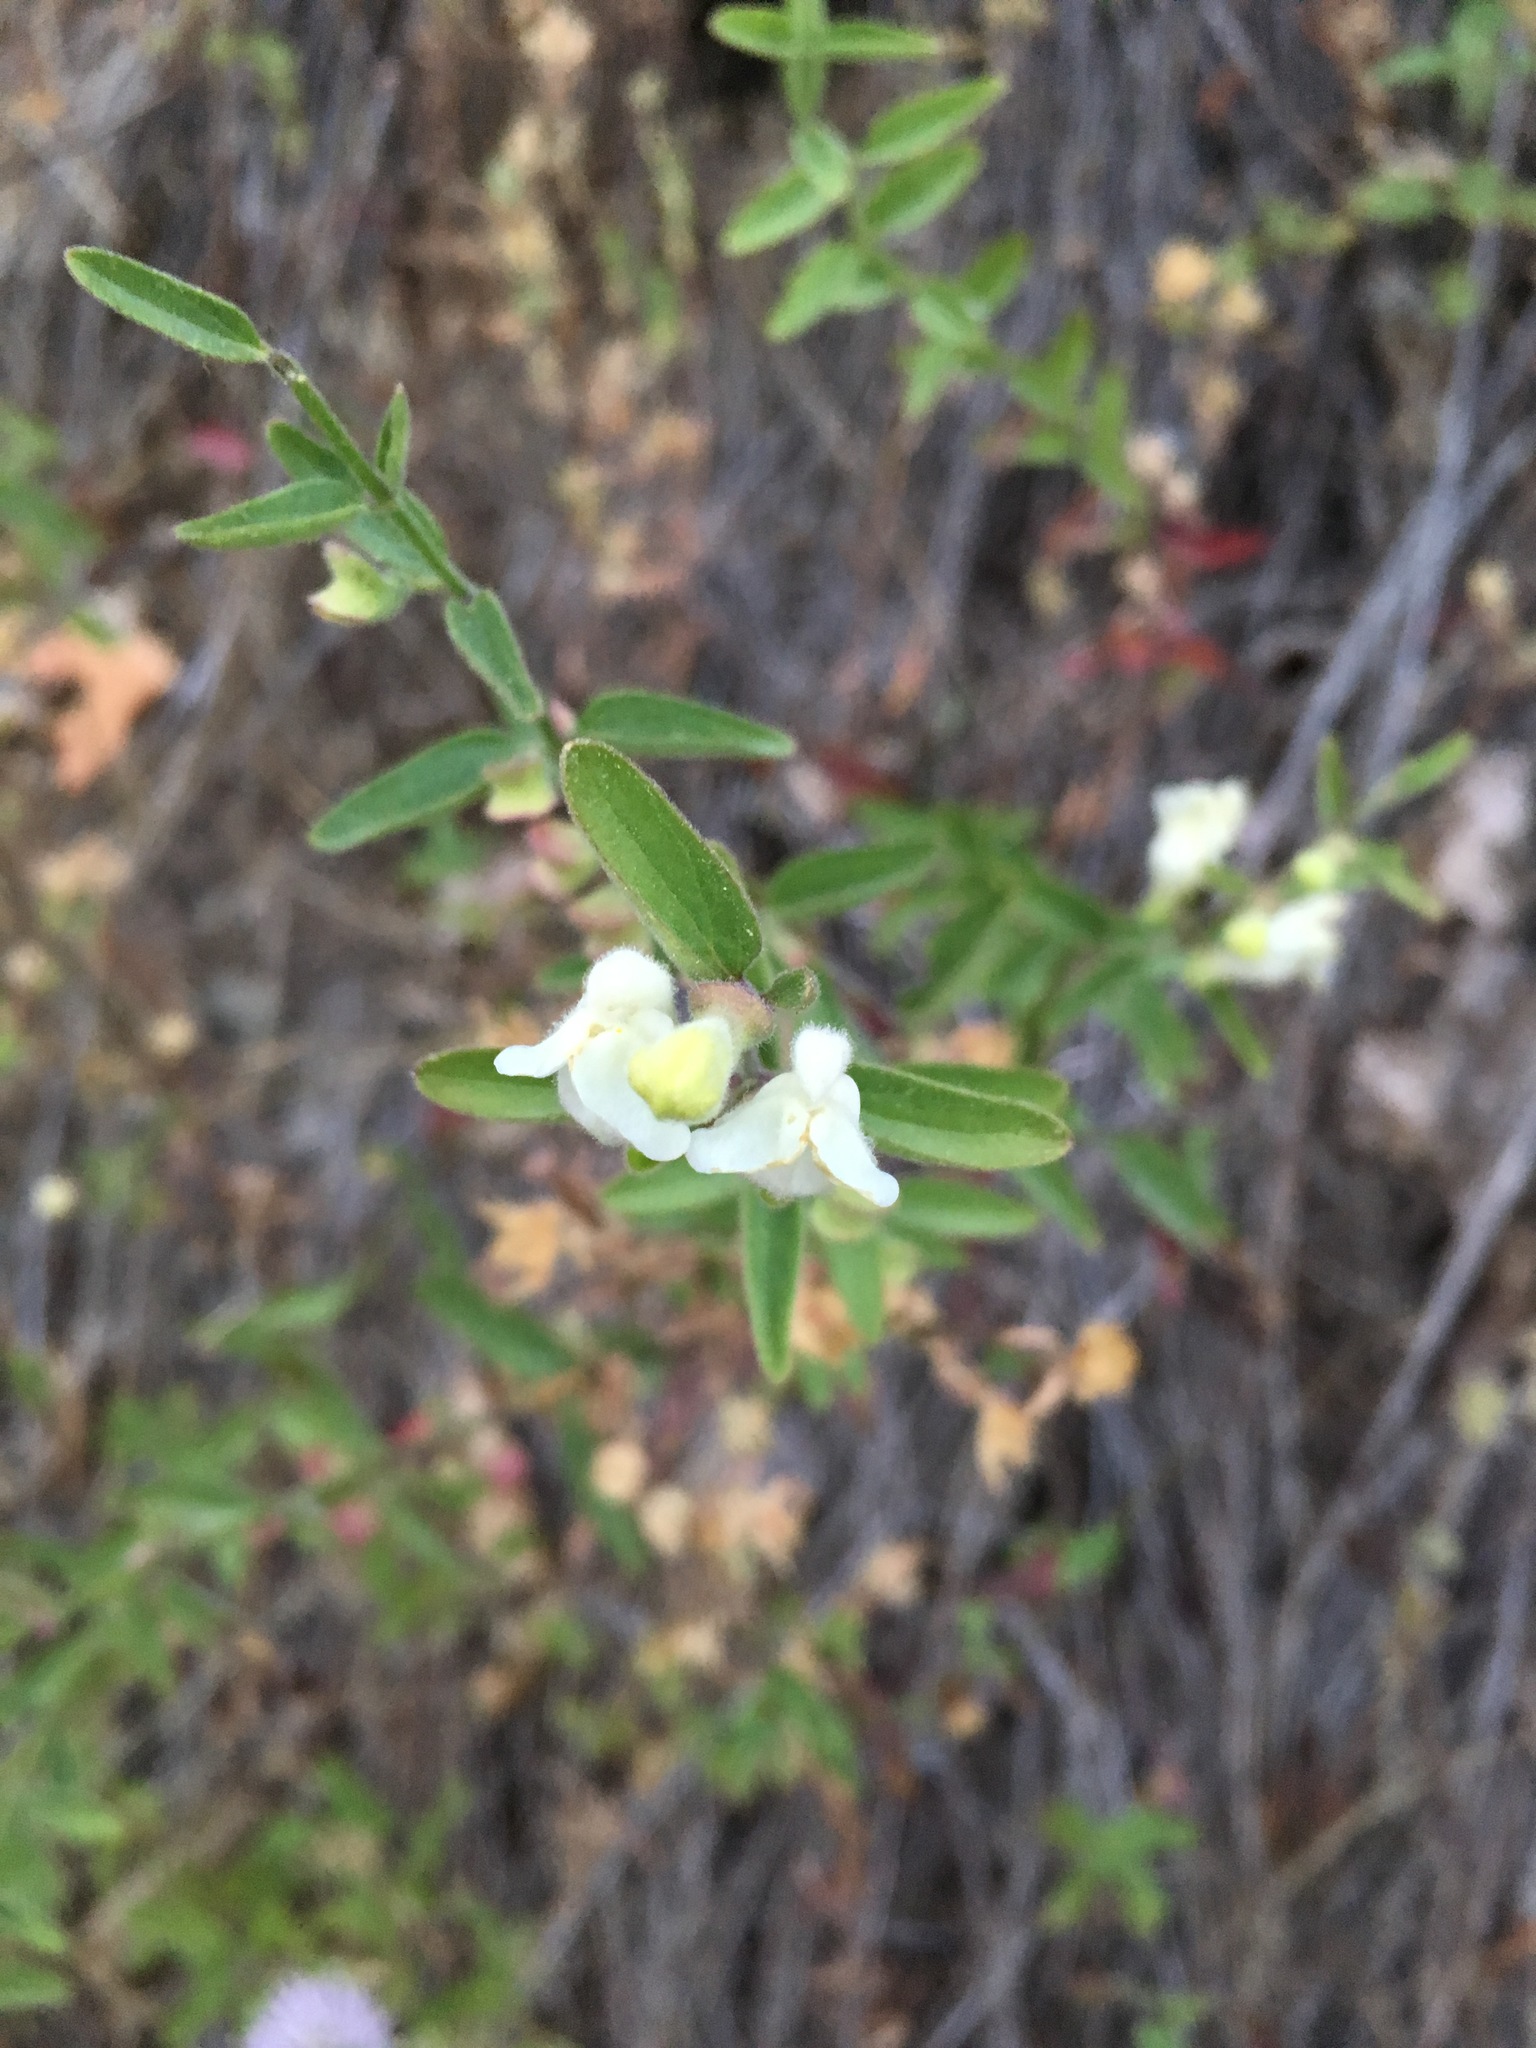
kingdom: Plantae
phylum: Tracheophyta
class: Magnoliopsida
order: Lamiales
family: Lamiaceae
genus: Scutellaria
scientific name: Scutellaria californica
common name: California scullcap
